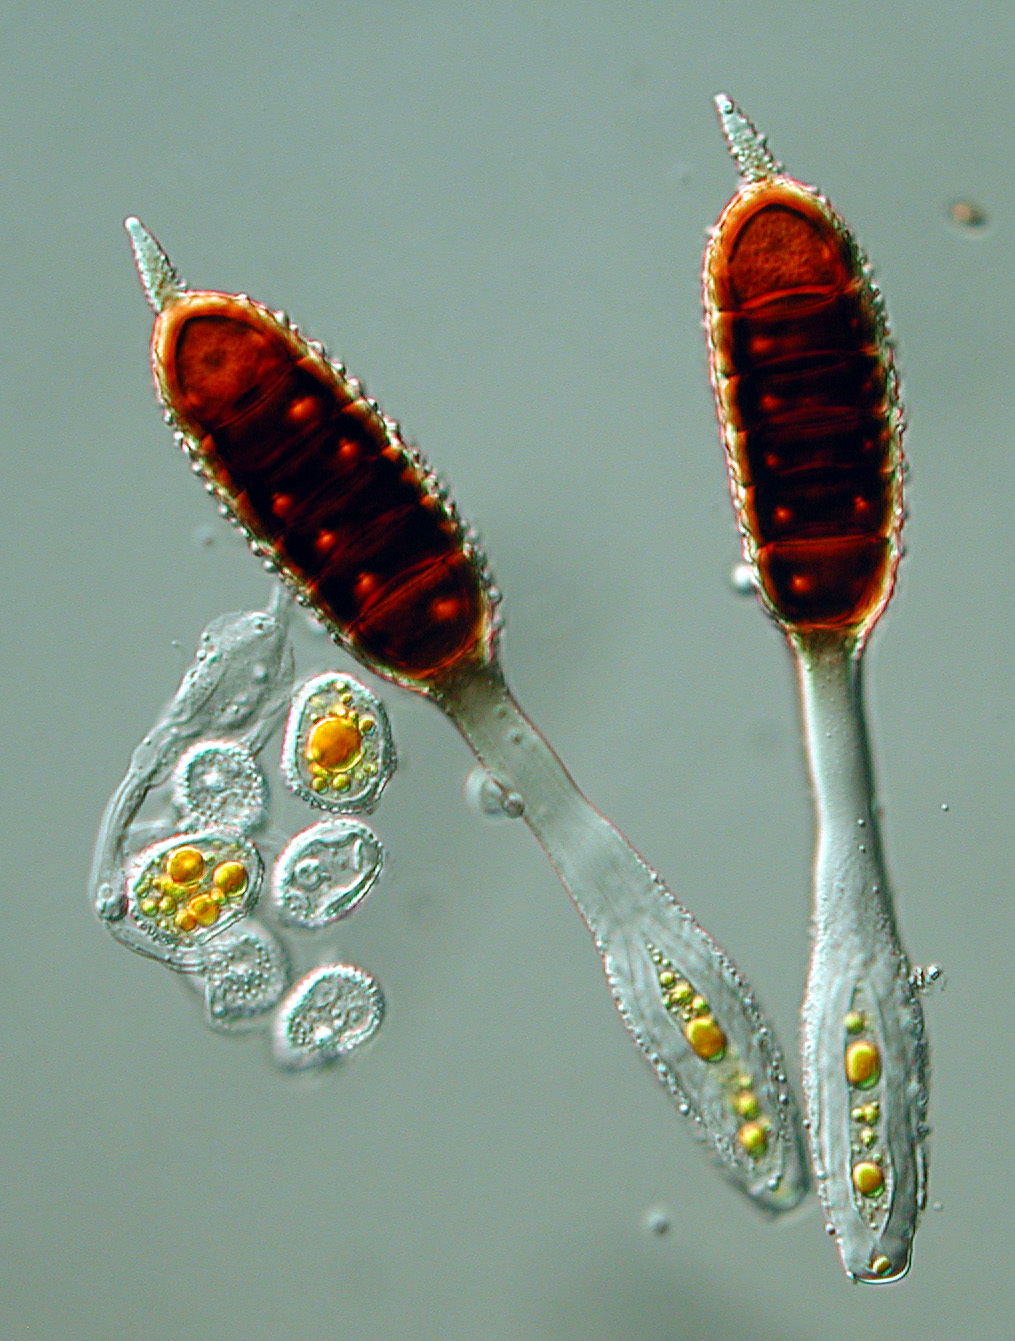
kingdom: Fungi
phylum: Basidiomycota
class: Pucciniomycetes
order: Pucciniales
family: Phragmidiaceae
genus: Phragmidium
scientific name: Phragmidium mucronatum
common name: Rose rust
